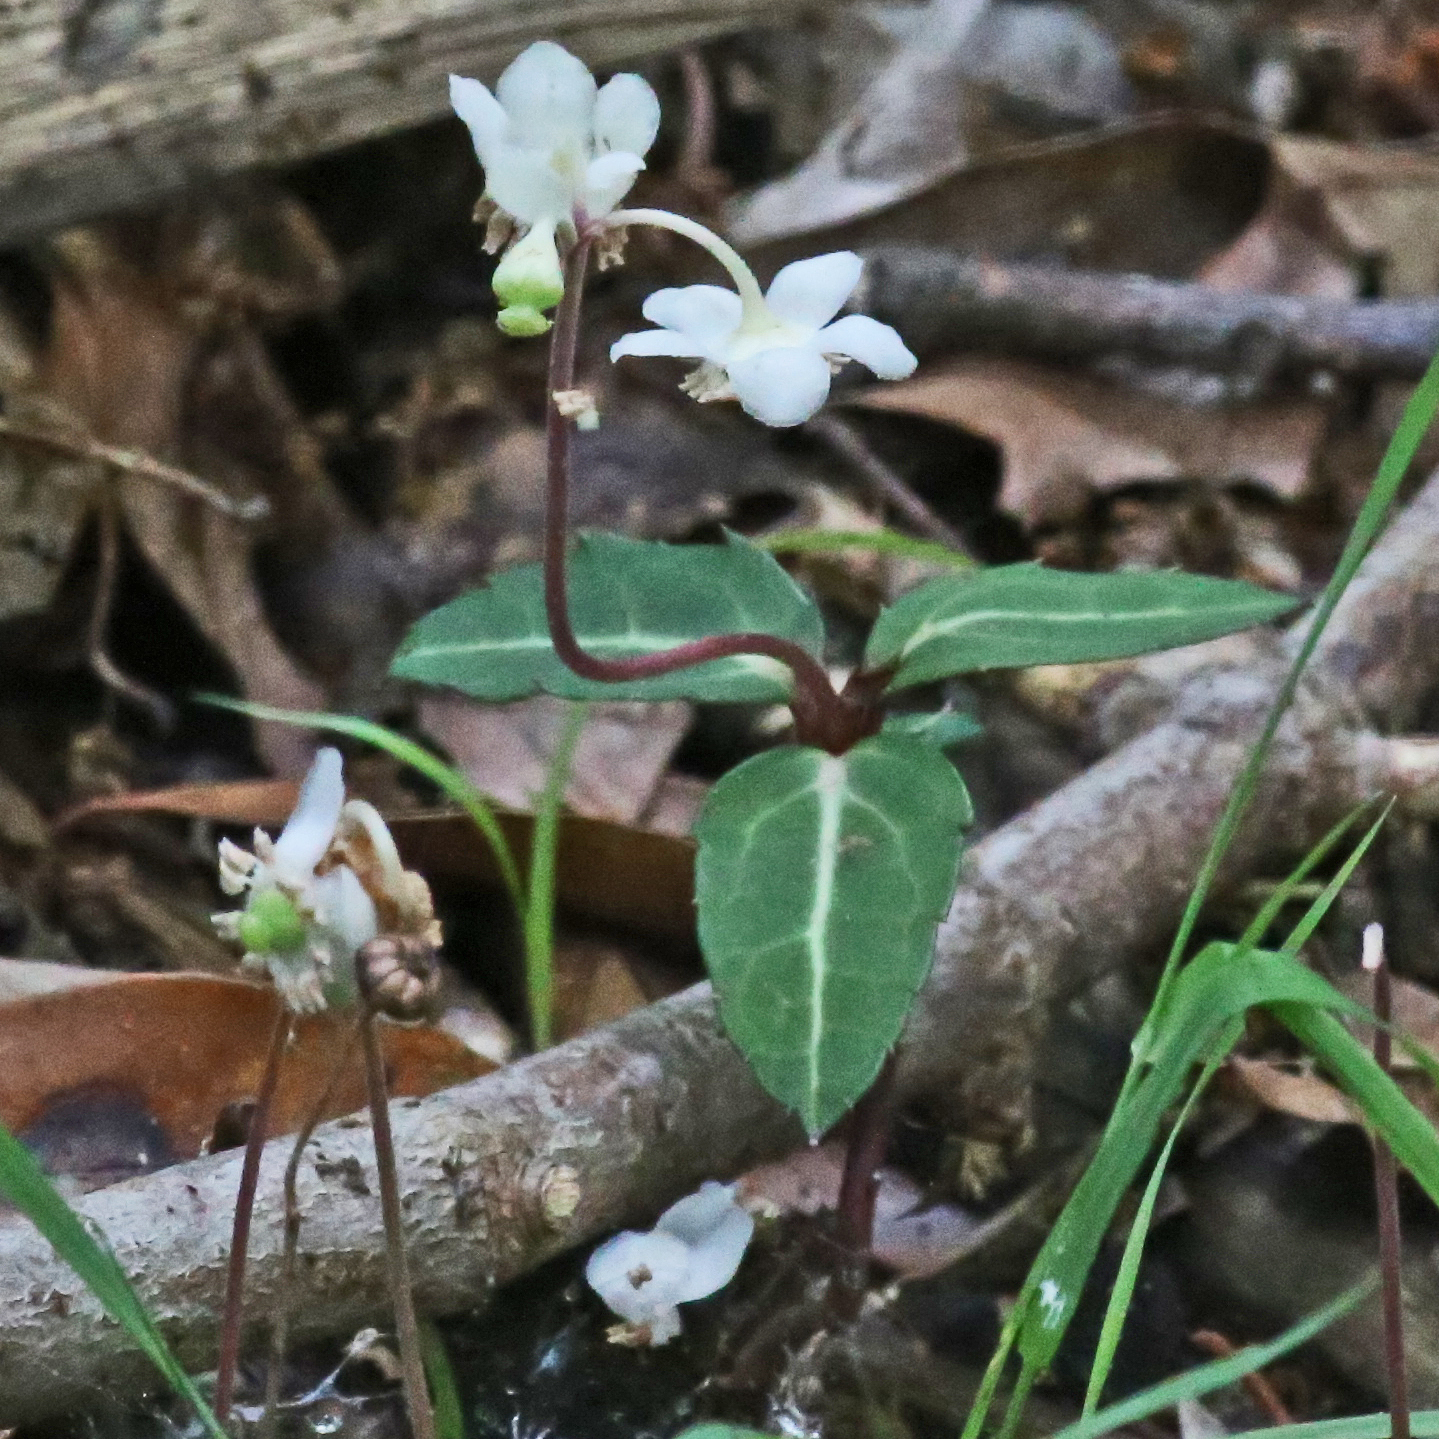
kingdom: Plantae
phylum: Tracheophyta
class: Magnoliopsida
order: Ericales
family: Ericaceae
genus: Chimaphila
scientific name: Chimaphila maculata
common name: Spotted pipsissewa
